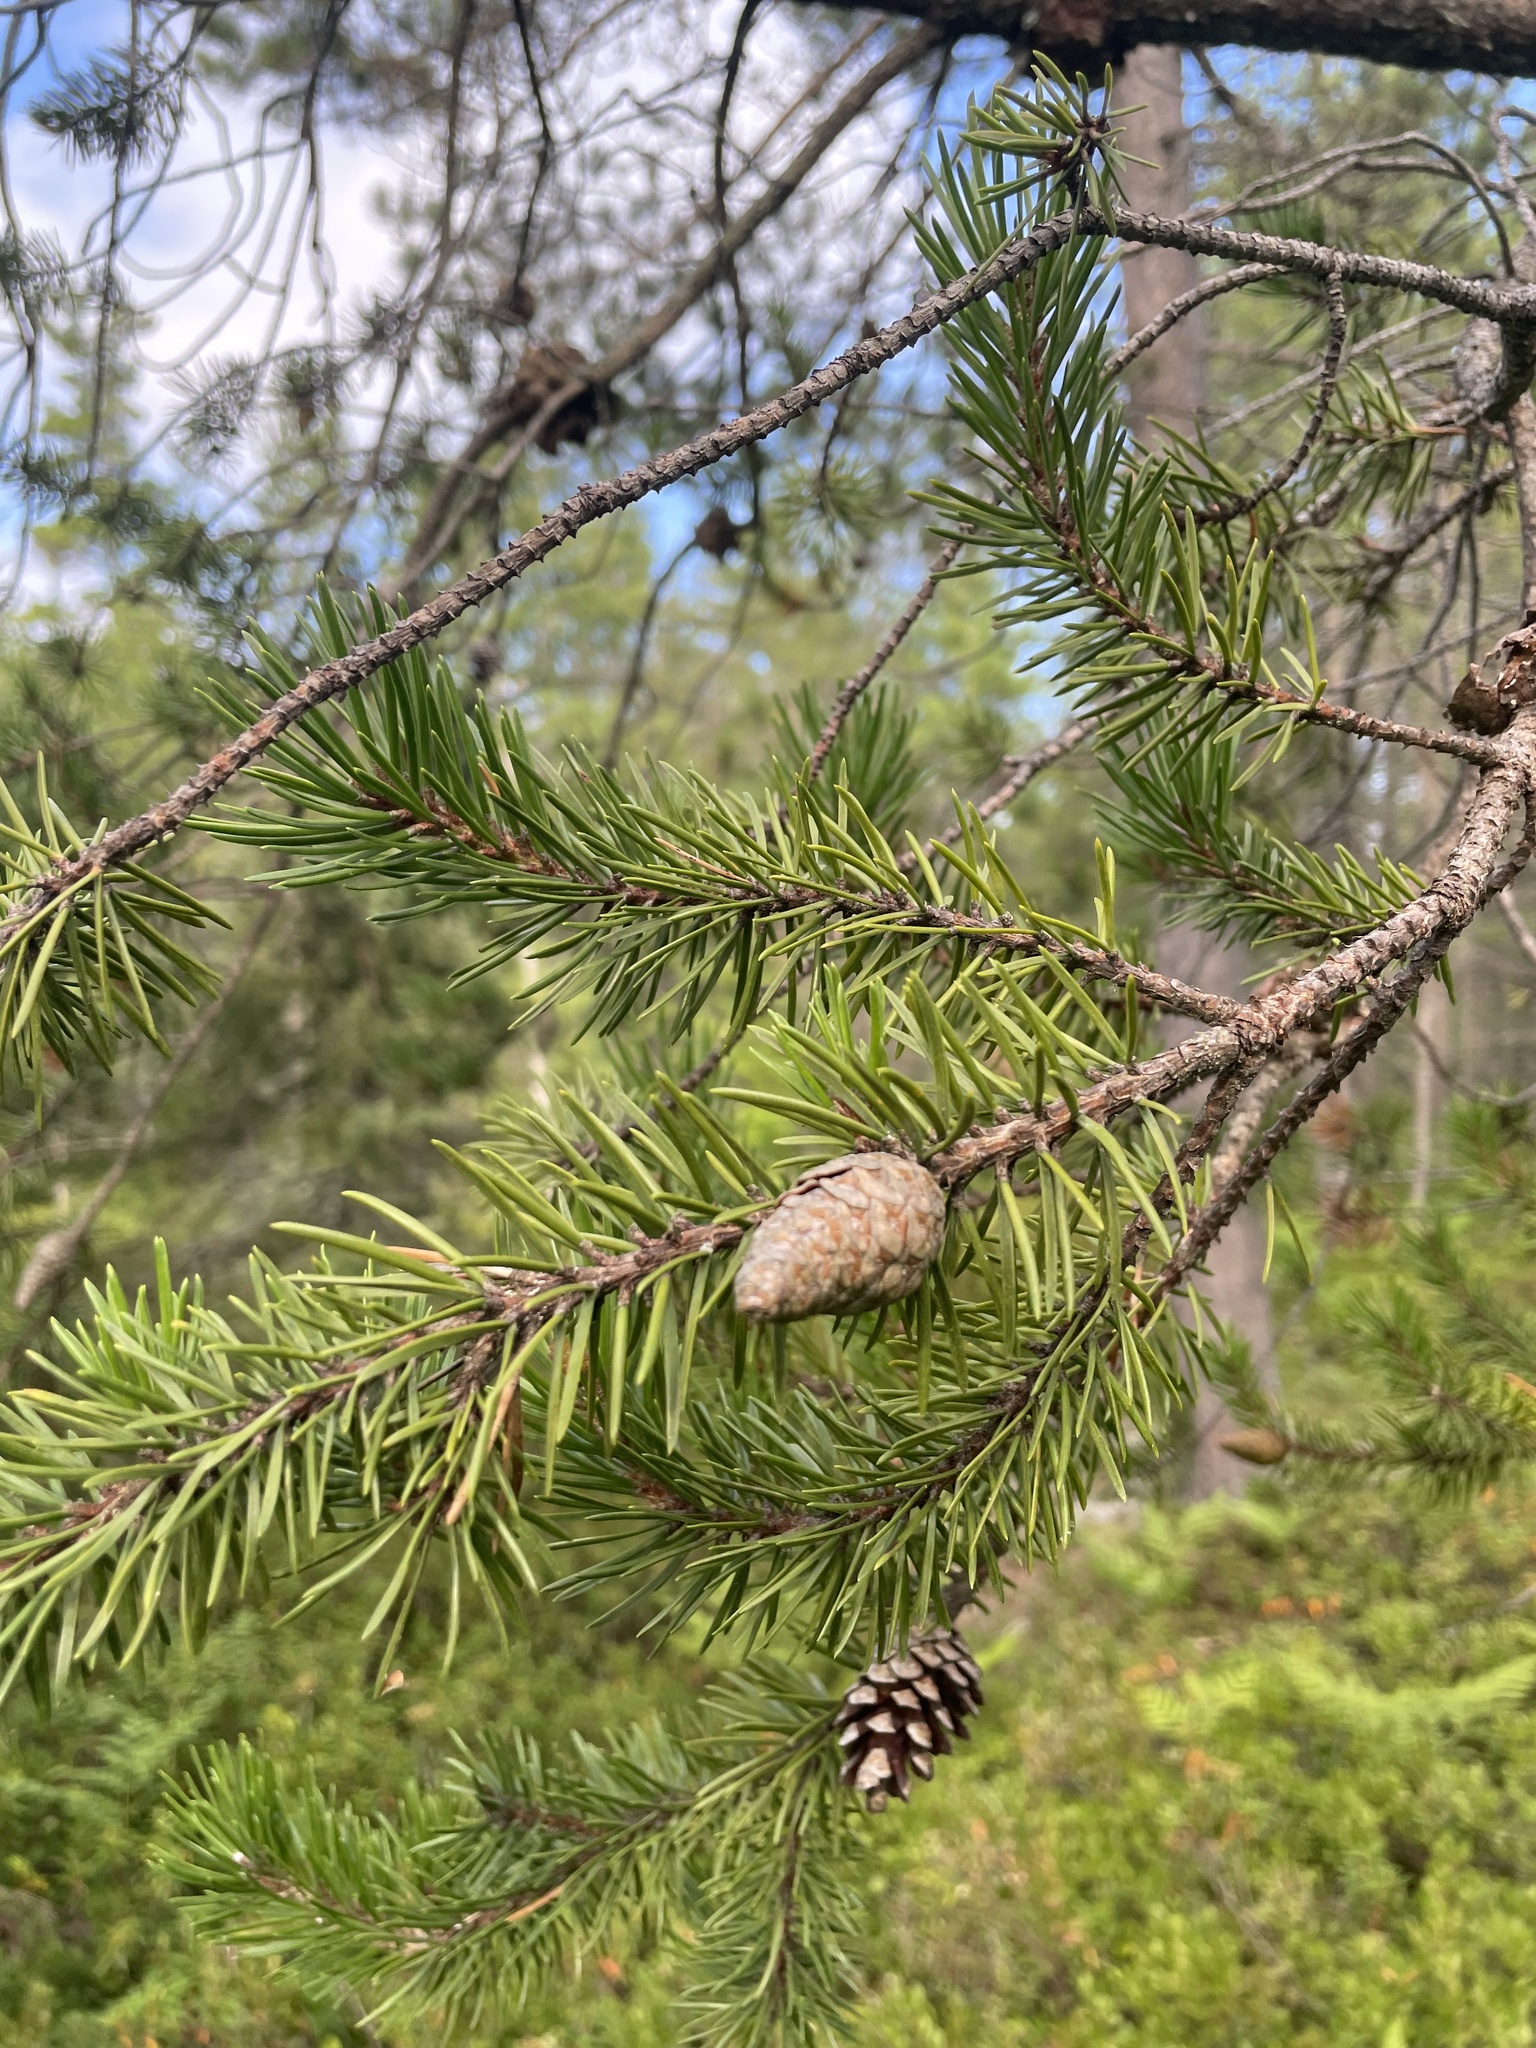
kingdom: Plantae
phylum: Tracheophyta
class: Pinopsida
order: Pinales
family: Pinaceae
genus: Pinus
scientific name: Pinus banksiana
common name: Jack pine
